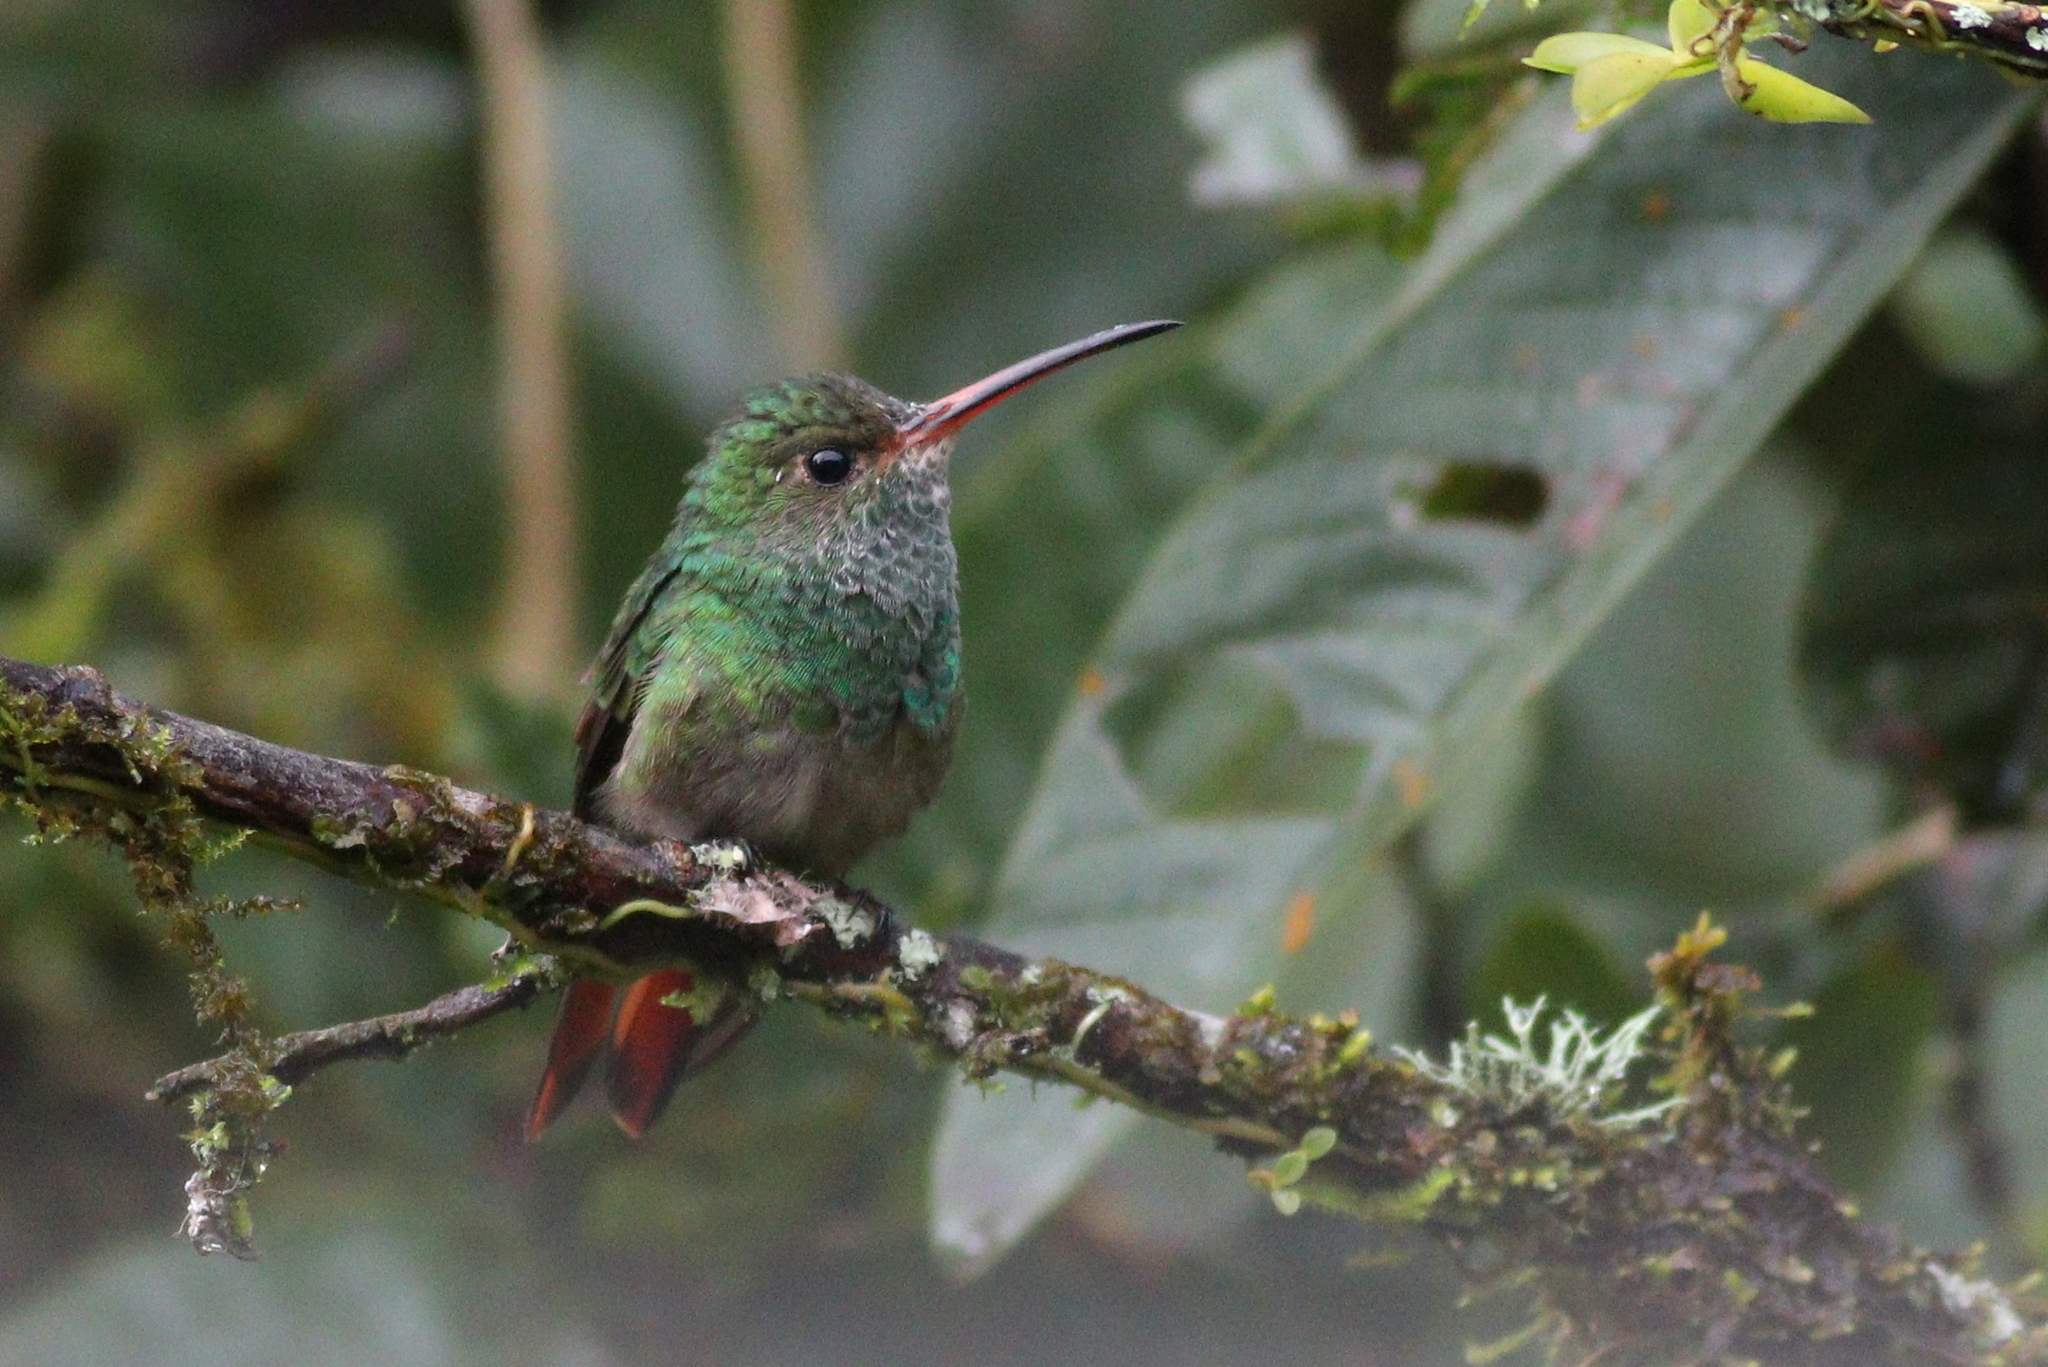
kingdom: Animalia
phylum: Chordata
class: Aves
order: Apodiformes
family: Trochilidae
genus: Amazilia
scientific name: Amazilia tzacatl
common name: Rufous-tailed hummingbird
